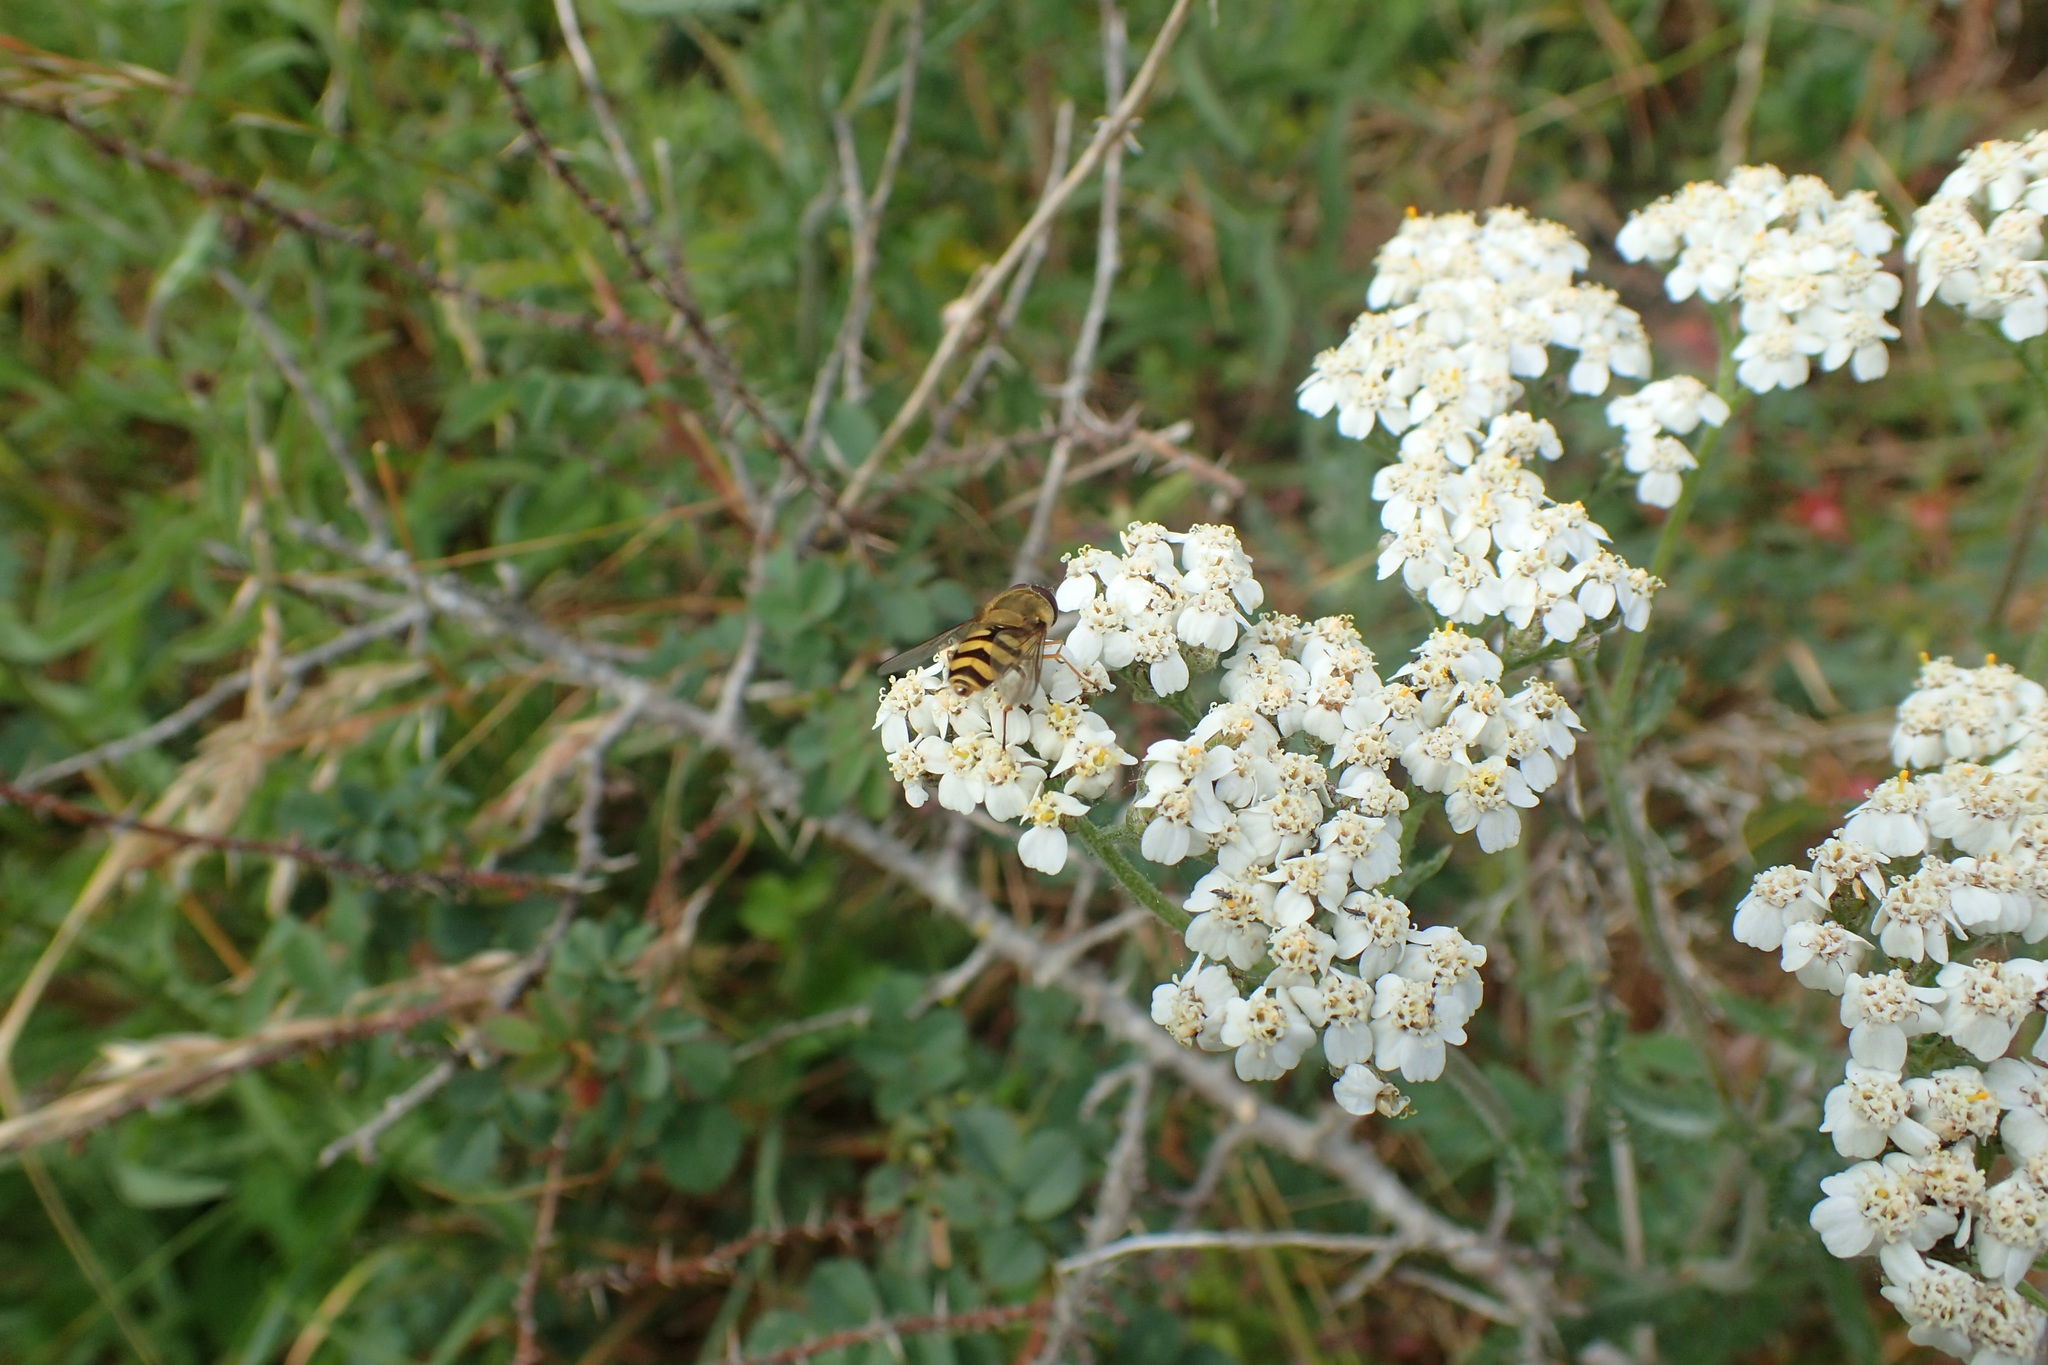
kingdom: Animalia
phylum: Arthropoda
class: Insecta
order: Diptera
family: Syrphidae
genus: Syrphus
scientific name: Syrphus
